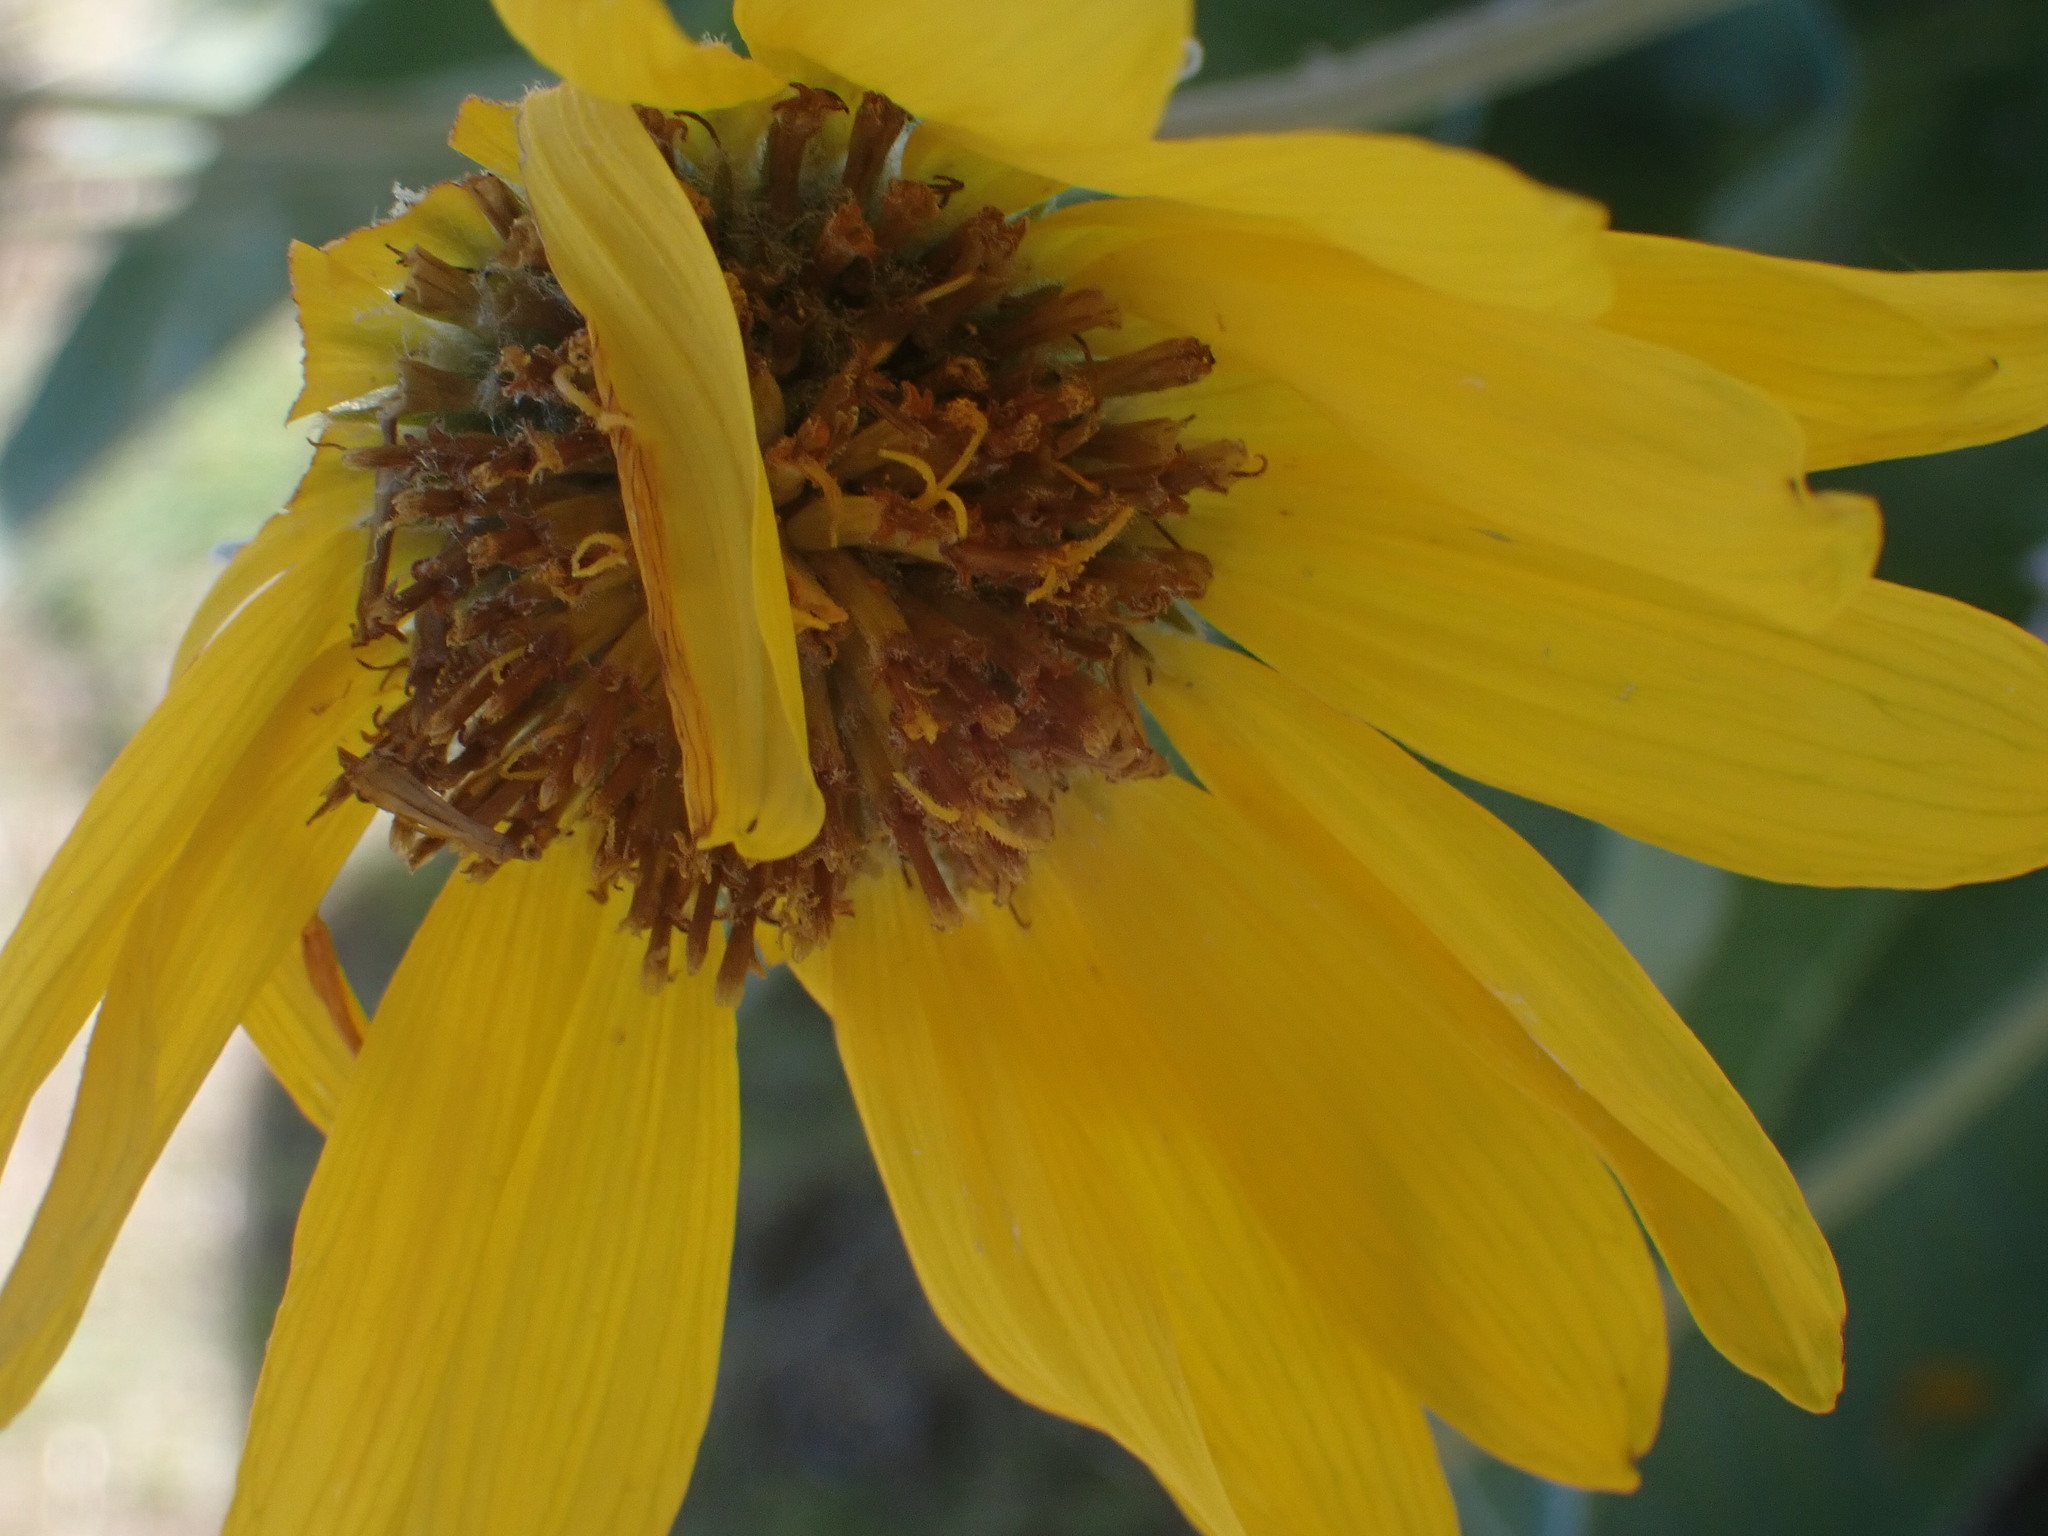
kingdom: Plantae
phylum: Tracheophyta
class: Magnoliopsida
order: Asterales
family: Asteraceae
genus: Wyethia
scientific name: Wyethia sagittata
